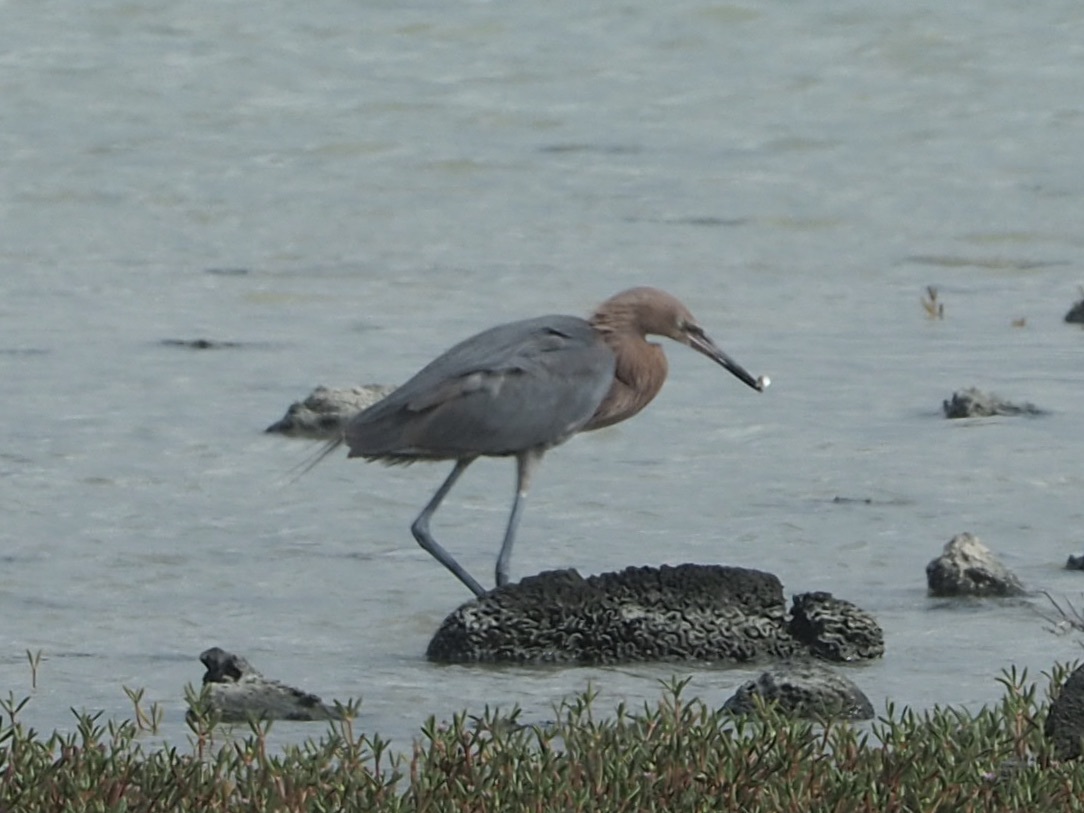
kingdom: Animalia
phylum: Chordata
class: Aves
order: Pelecaniformes
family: Ardeidae
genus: Egretta
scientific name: Egretta rufescens
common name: Reddish egret
